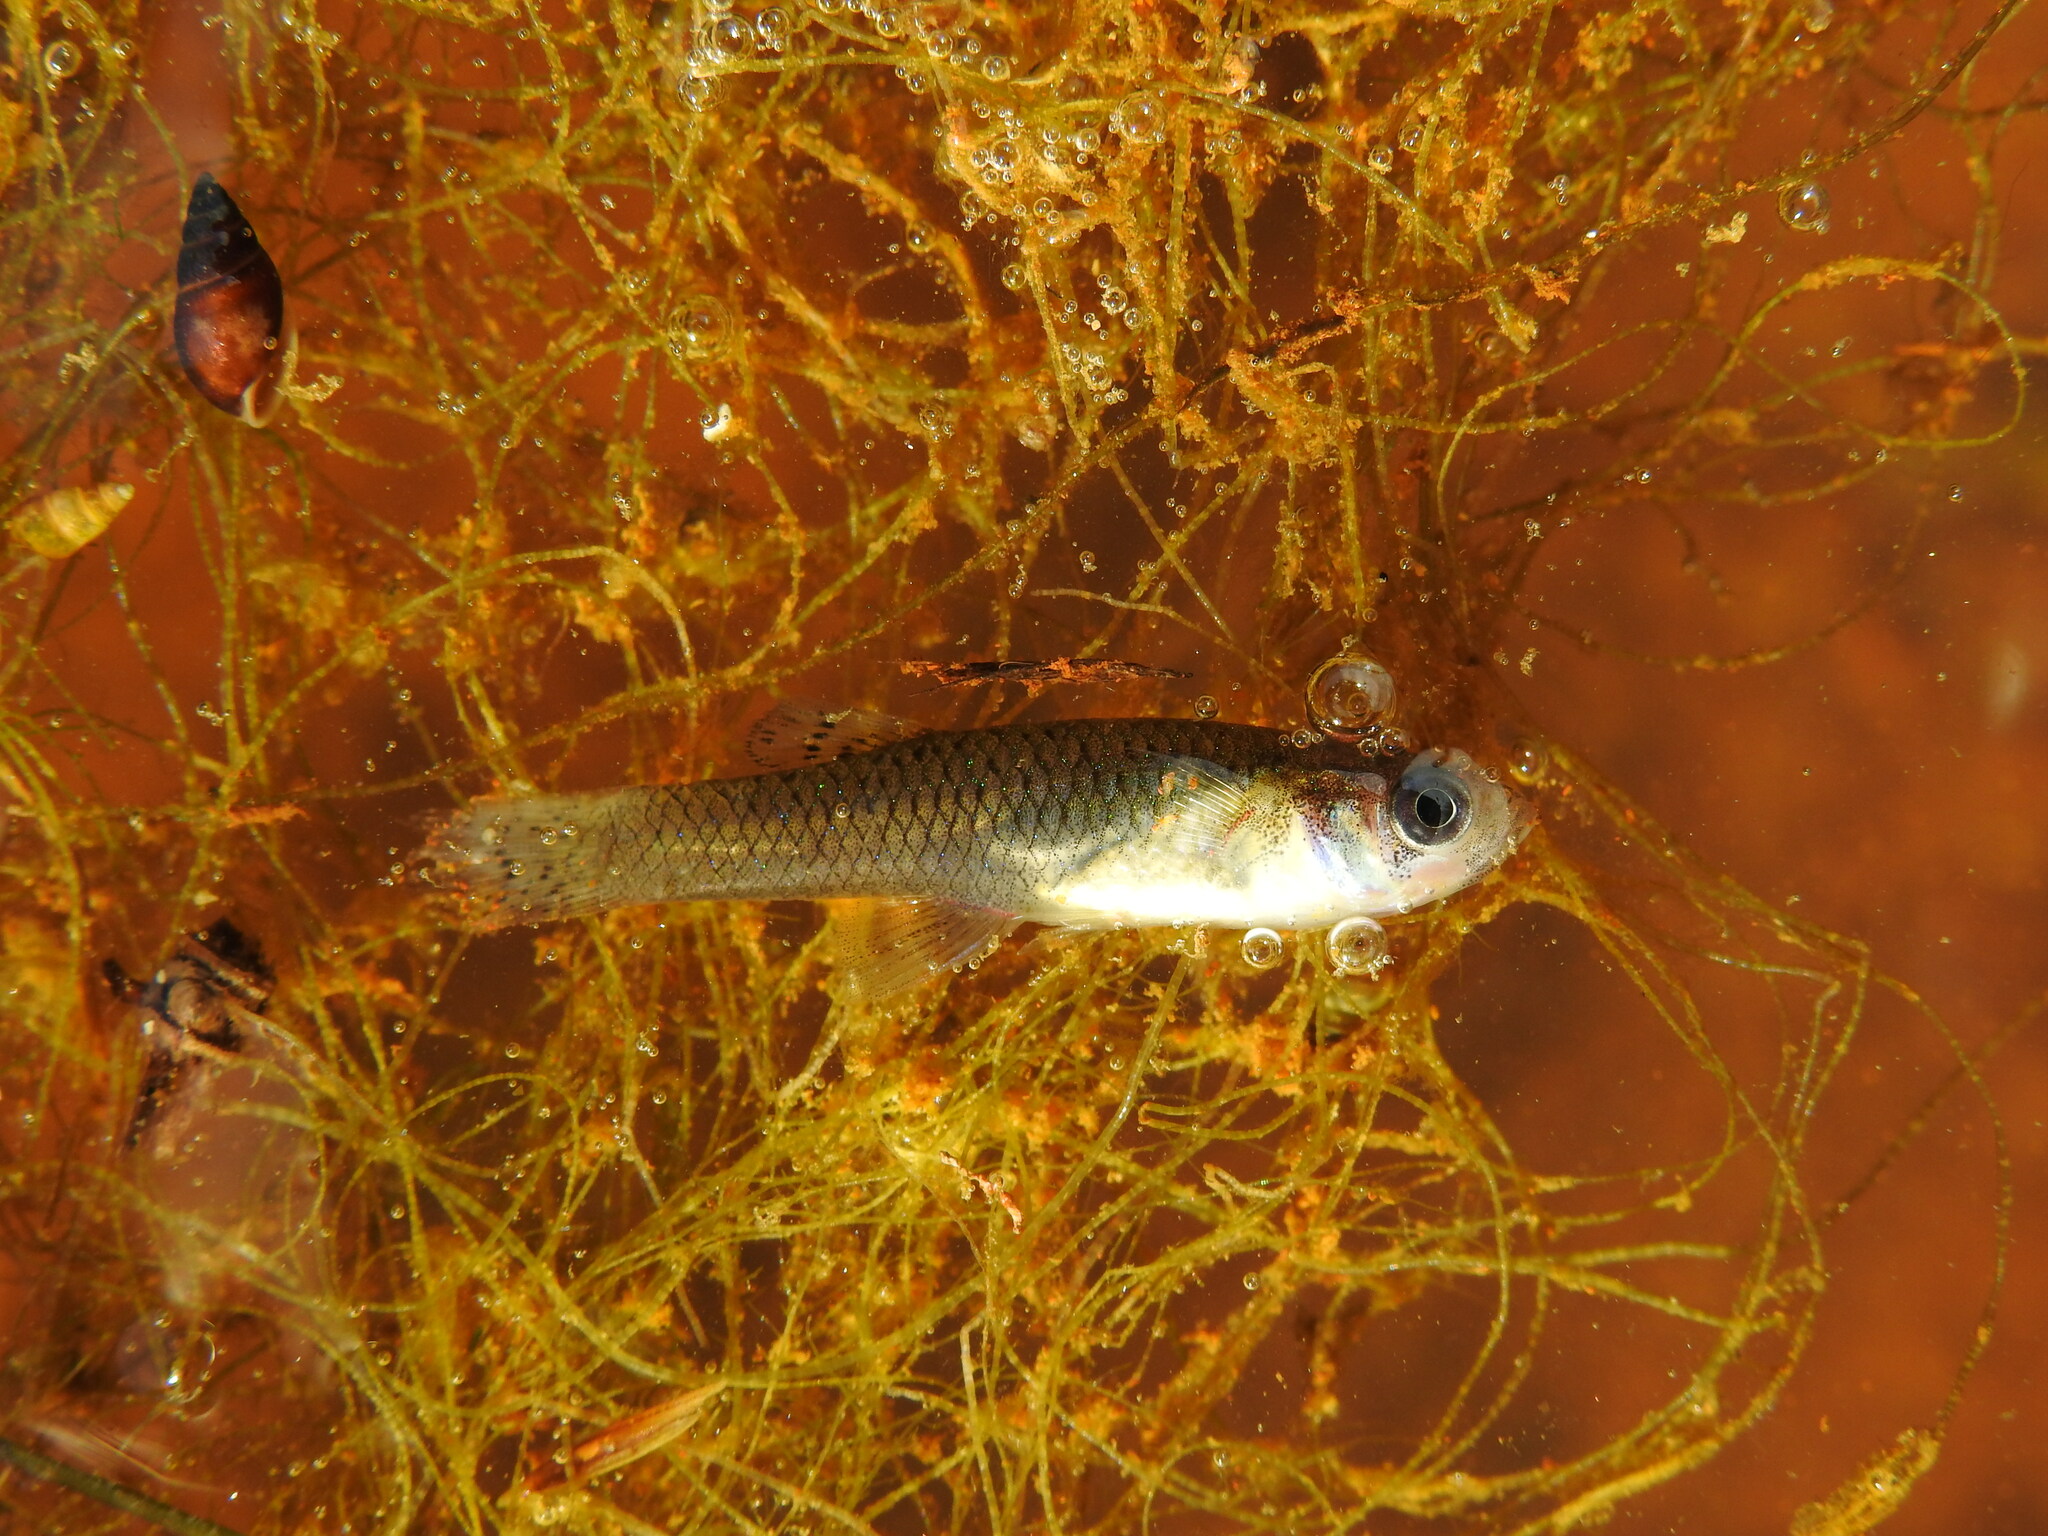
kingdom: Animalia
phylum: Chordata
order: Cyprinodontiformes
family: Poeciliidae
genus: Gambusia
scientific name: Gambusia holbrooki
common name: Eastern mosquitofish
